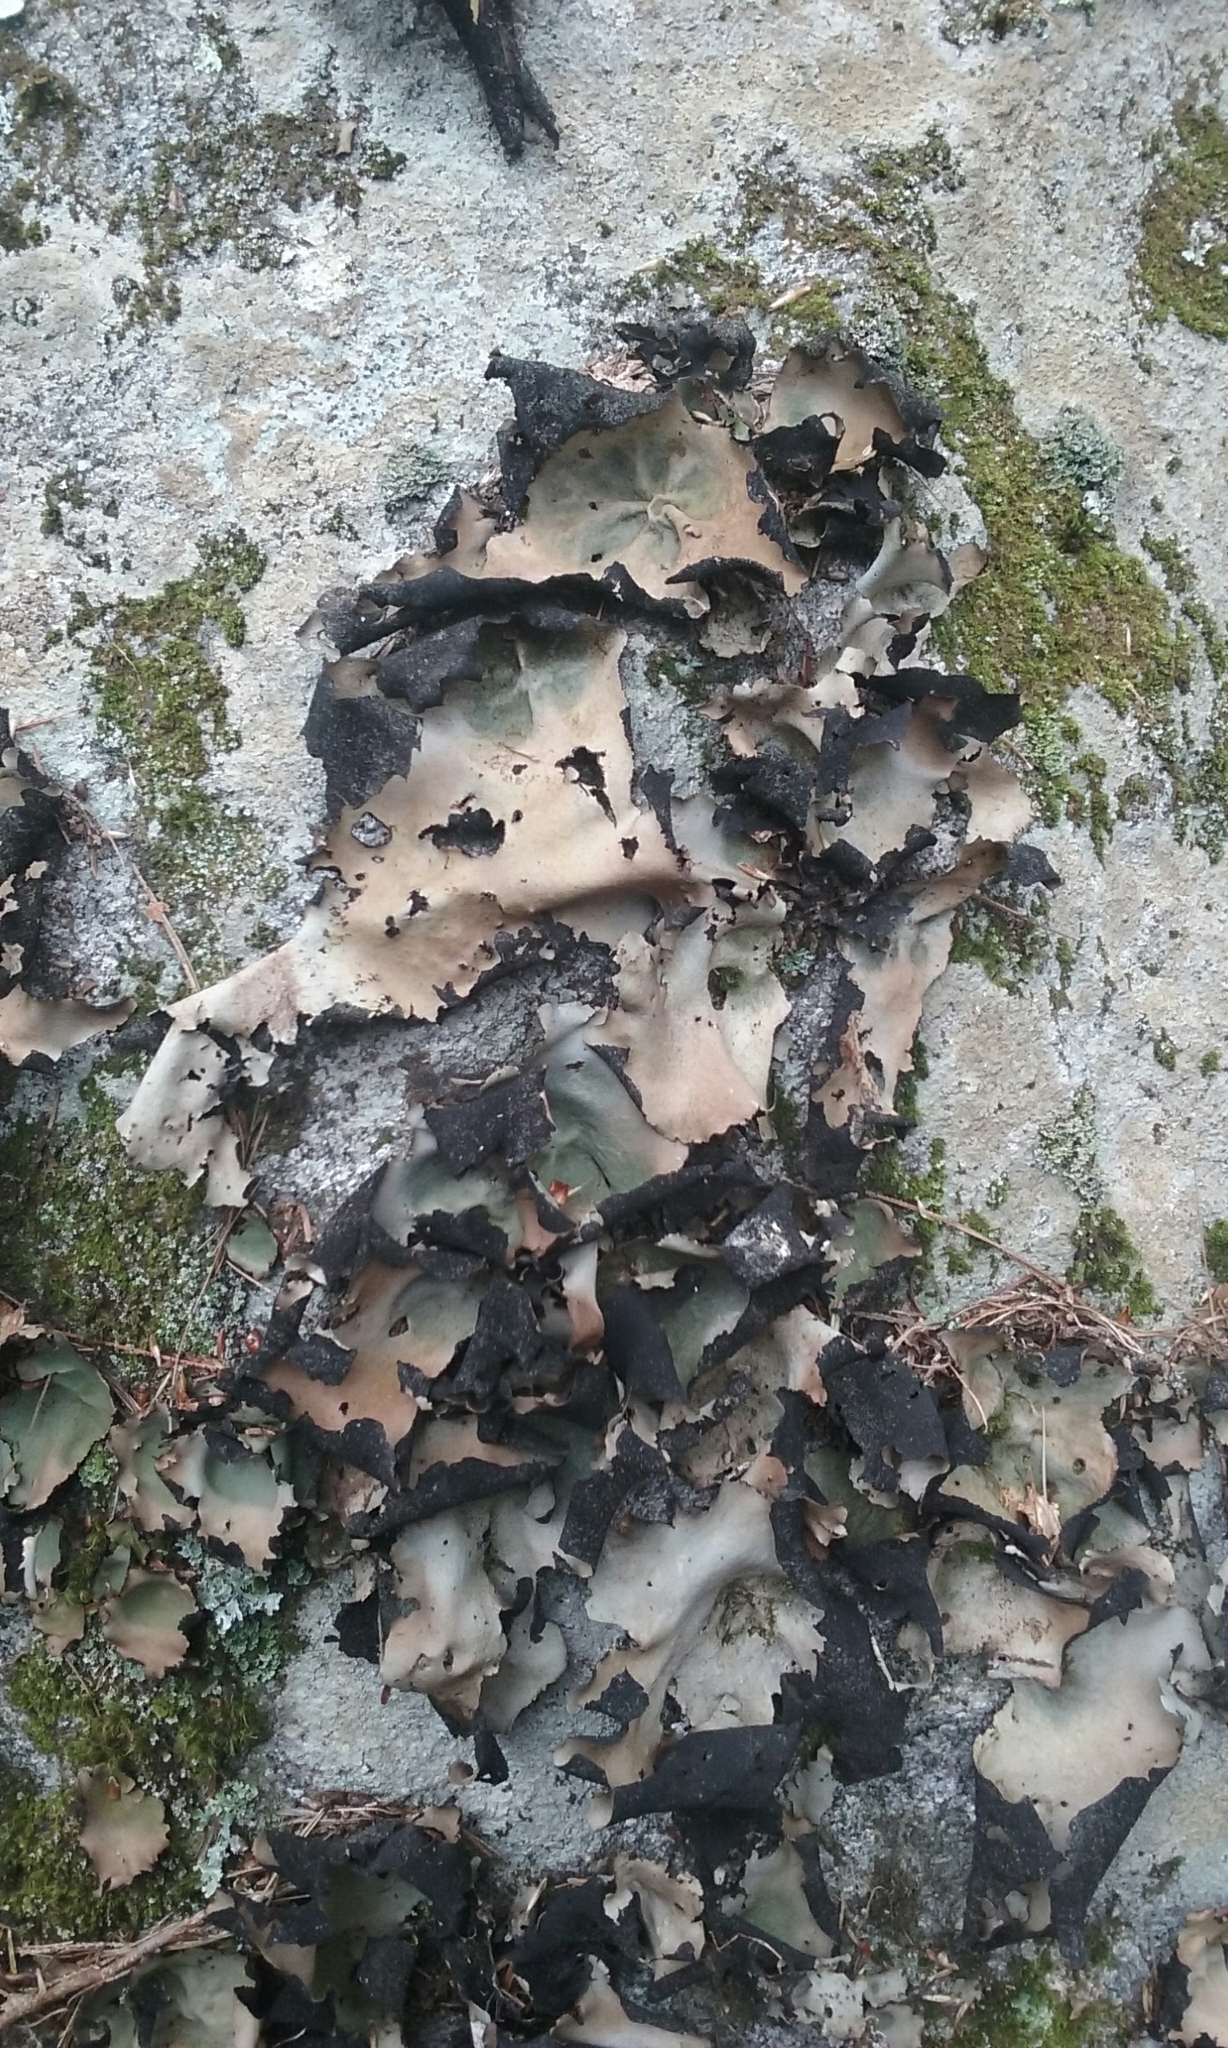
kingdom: Fungi
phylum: Ascomycota
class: Lecanoromycetes
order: Umbilicariales
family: Umbilicariaceae
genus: Umbilicaria
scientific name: Umbilicaria mammulata
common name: Smooth rock tripe
